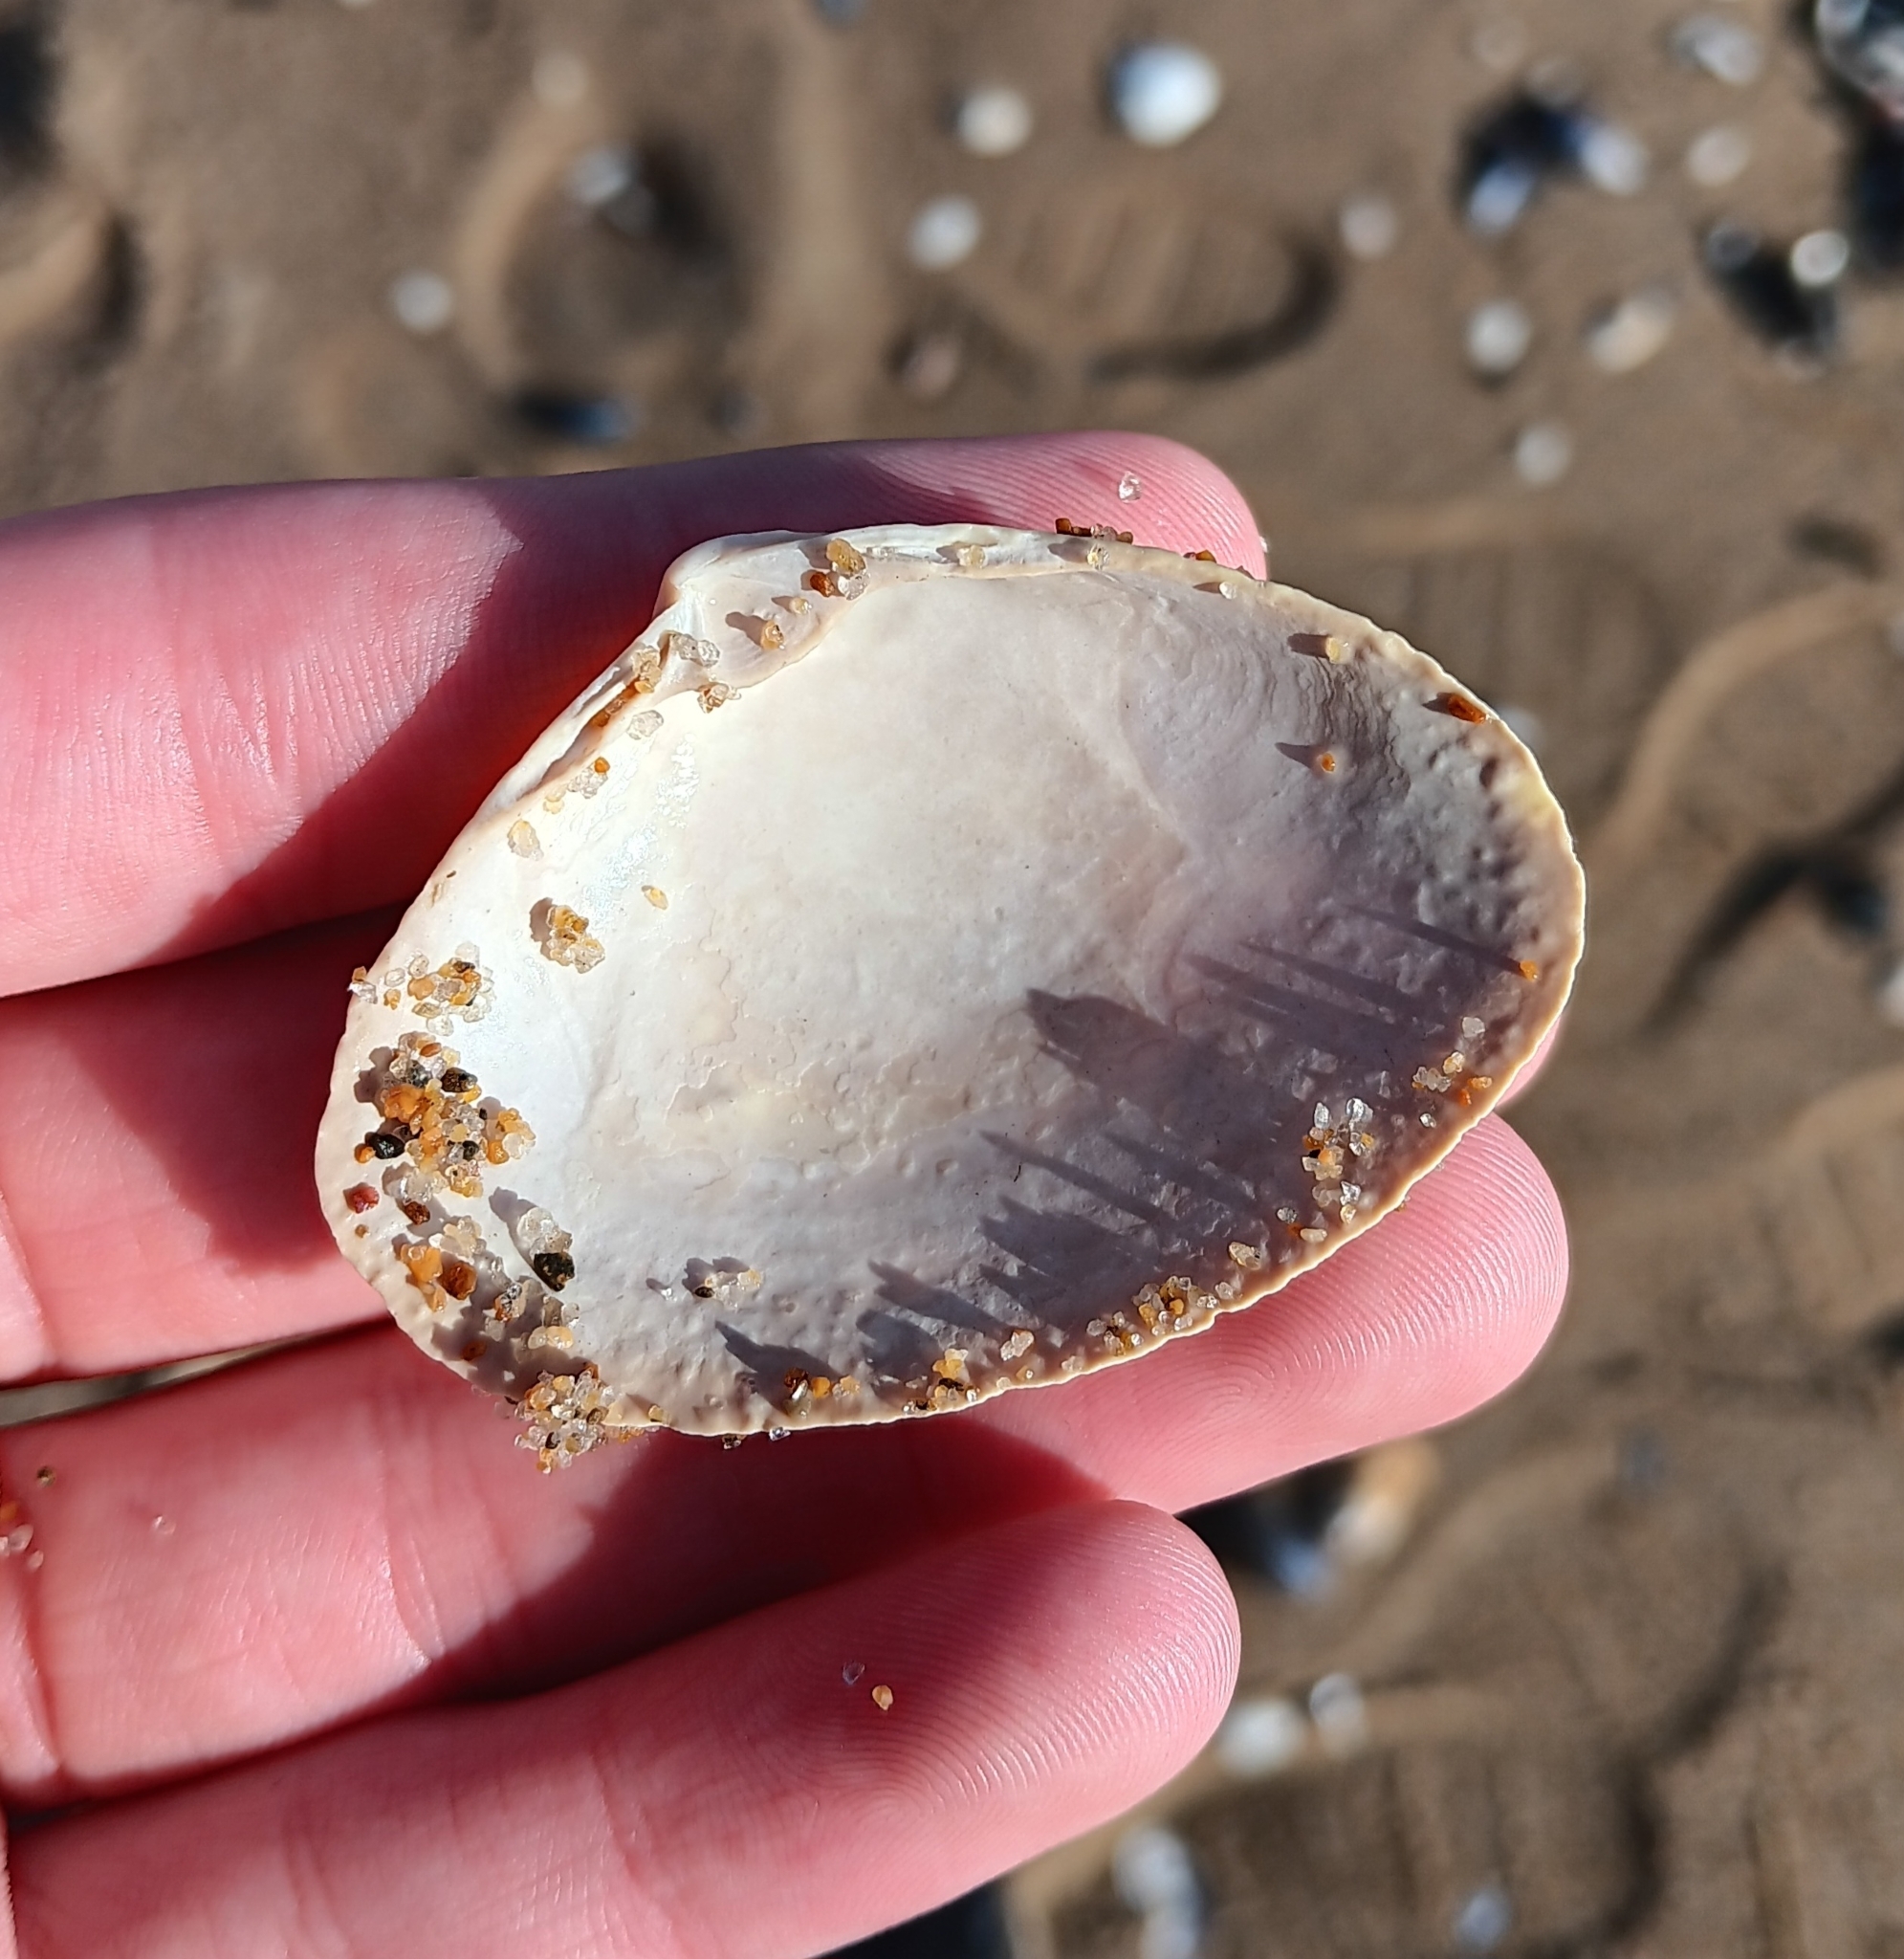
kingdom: Animalia
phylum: Mollusca
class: Bivalvia
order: Venerida
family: Mactridae
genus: Spisula
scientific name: Spisula solidissima
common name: Atlantic surf clam
